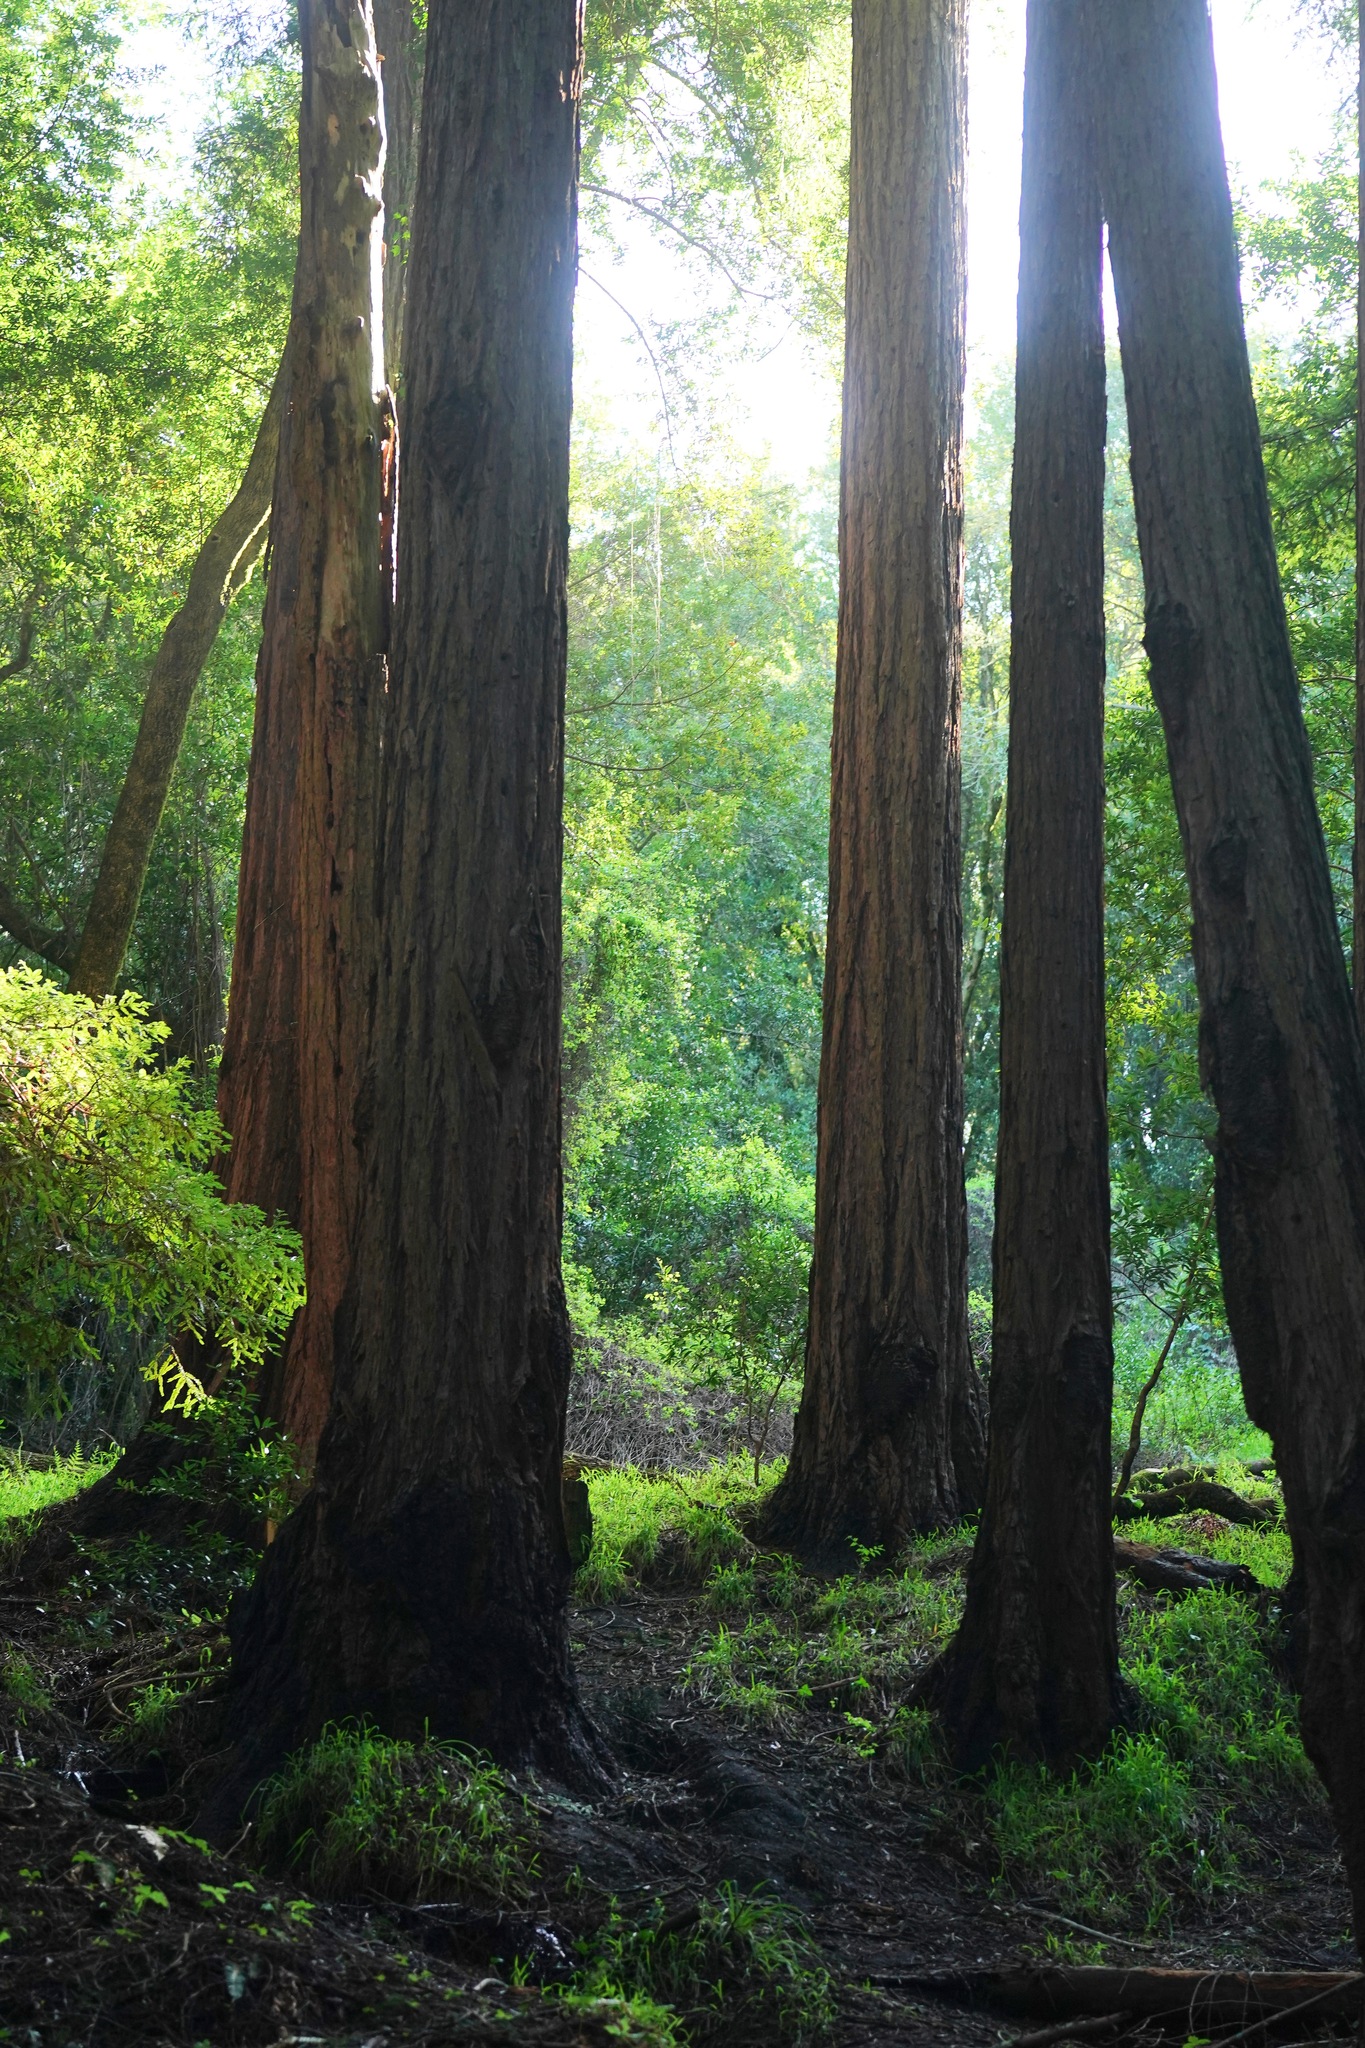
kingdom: Plantae
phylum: Tracheophyta
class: Pinopsida
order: Pinales
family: Cupressaceae
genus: Sequoia
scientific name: Sequoia sempervirens
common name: Coast redwood
